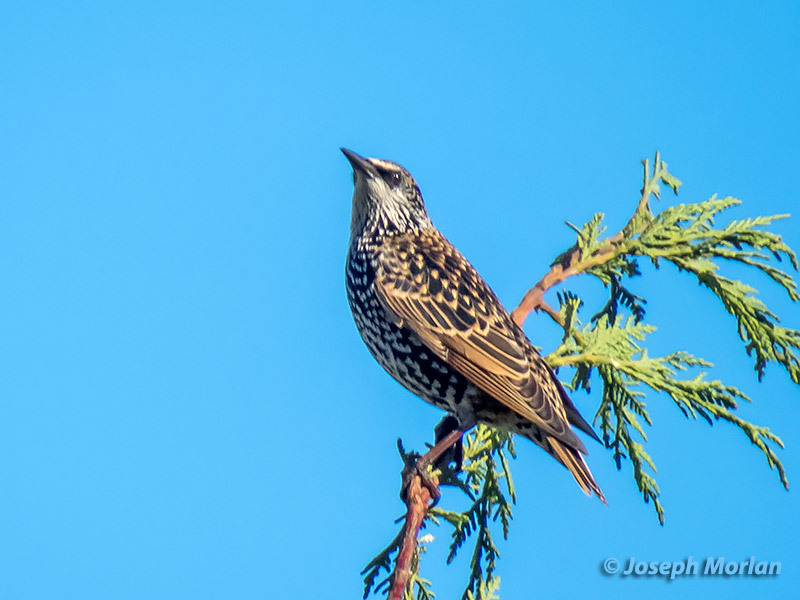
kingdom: Animalia
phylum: Chordata
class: Aves
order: Passeriformes
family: Sturnidae
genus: Sturnus
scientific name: Sturnus vulgaris
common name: Common starling
